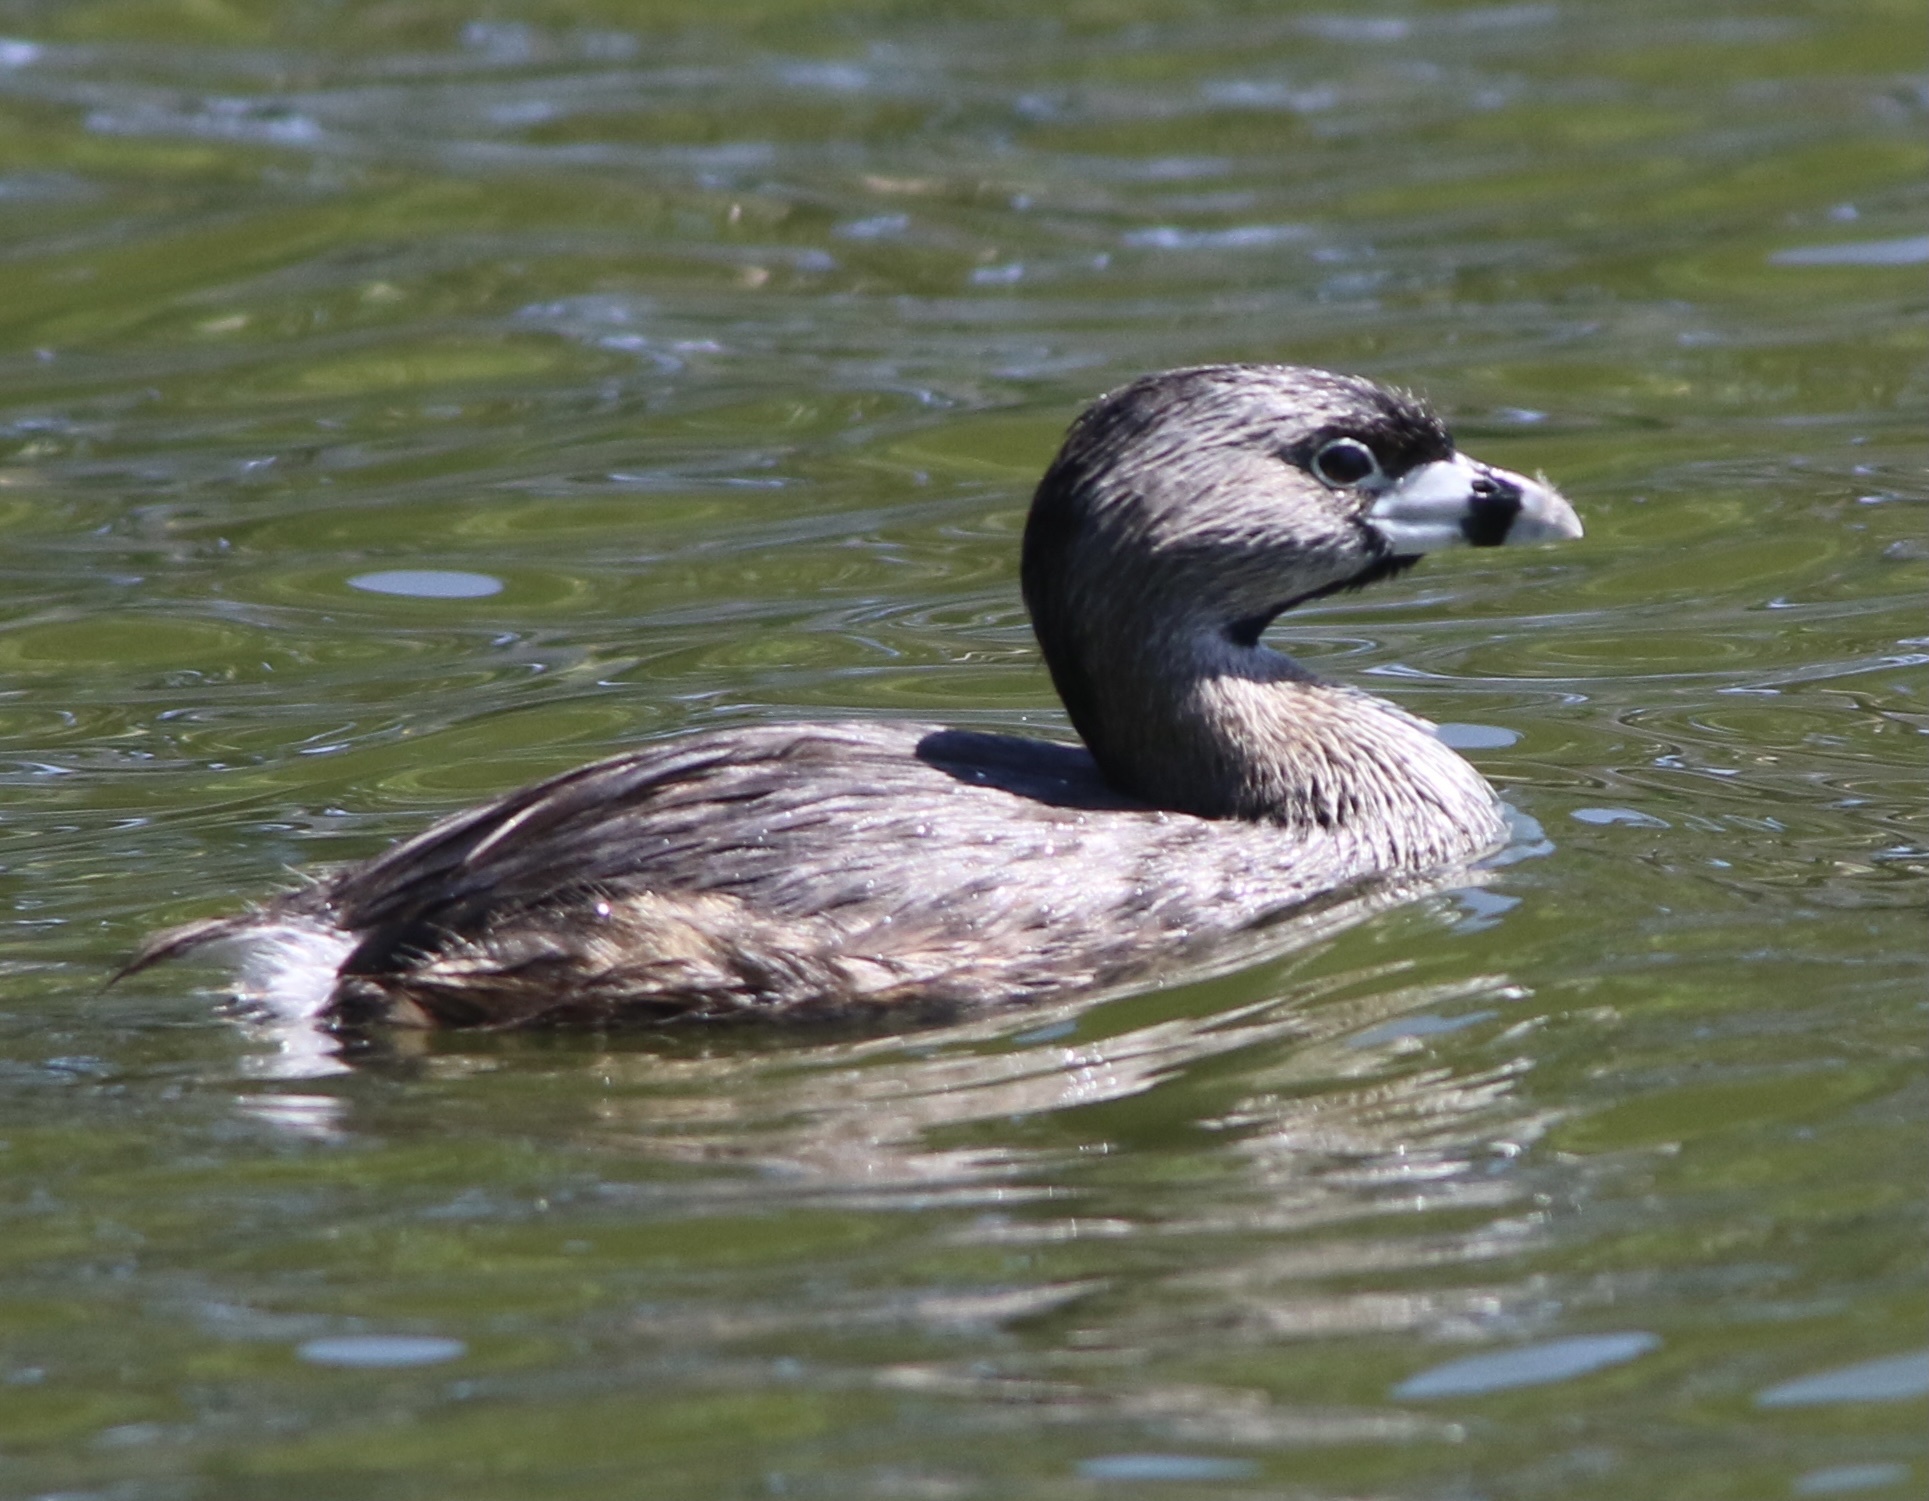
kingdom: Animalia
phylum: Chordata
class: Aves
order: Podicipediformes
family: Podicipedidae
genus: Podilymbus
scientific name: Podilymbus podiceps
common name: Pied-billed grebe
